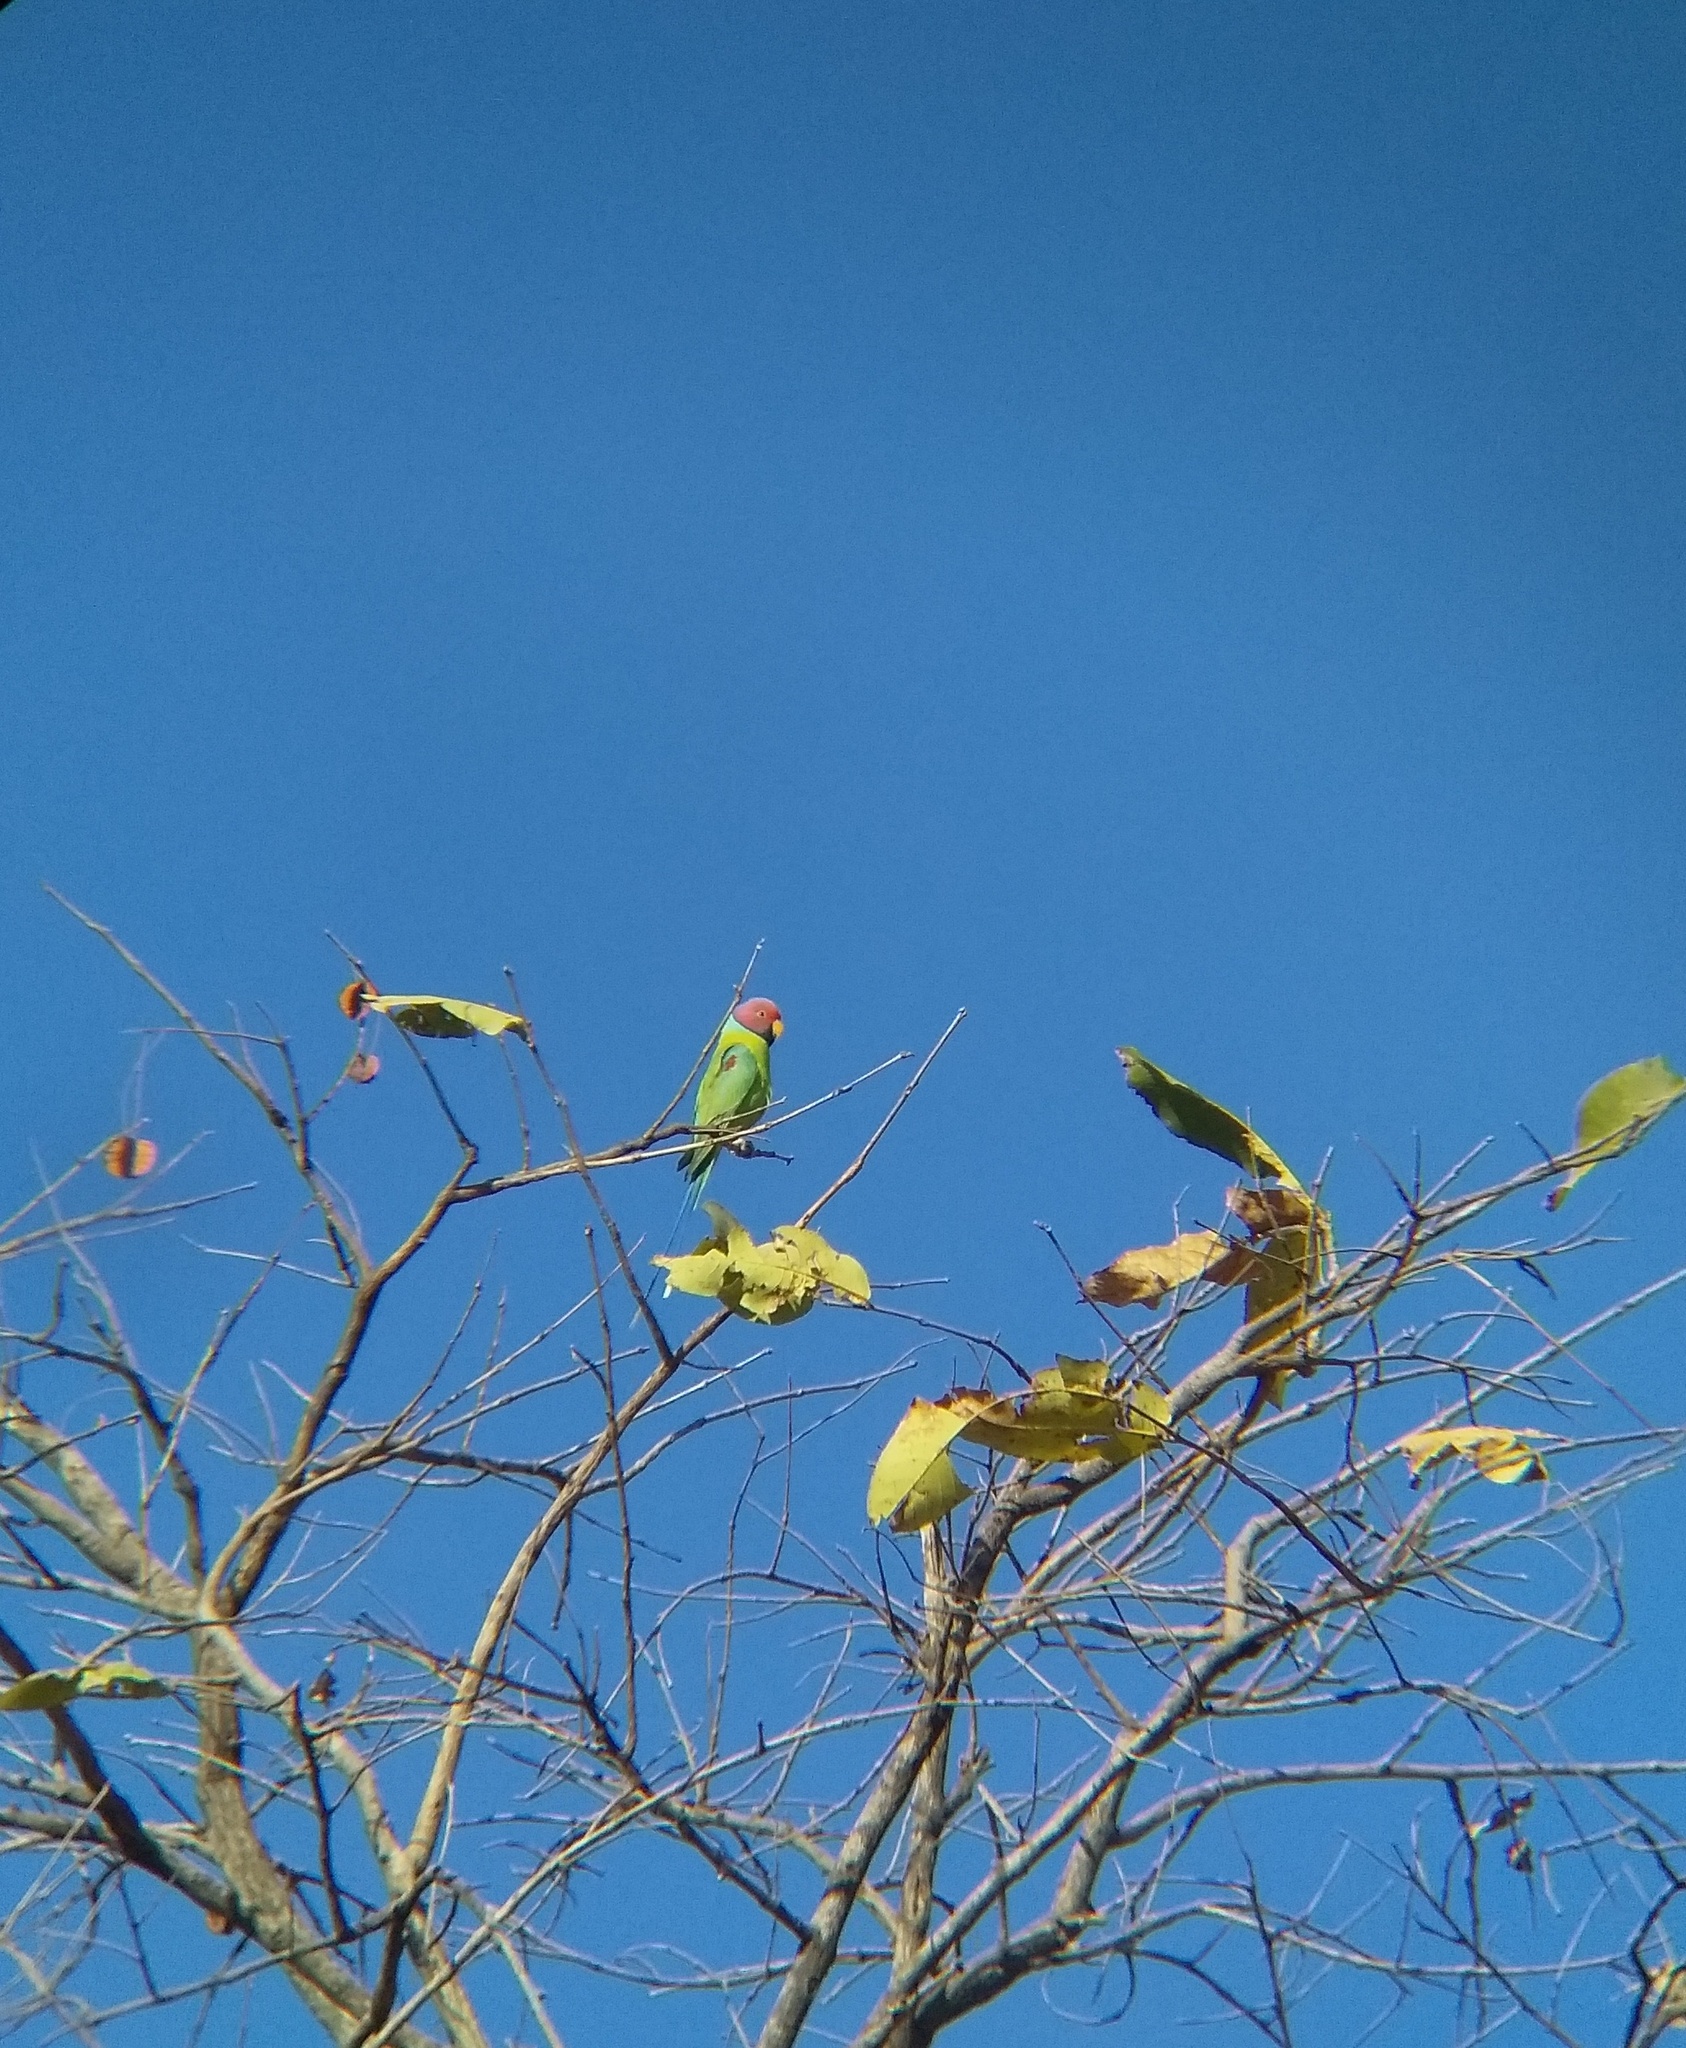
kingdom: Animalia
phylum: Chordata
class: Aves
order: Psittaciformes
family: Psittacidae
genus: Psittacula
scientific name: Psittacula cyanocephala
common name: Plum-headed parakeet
